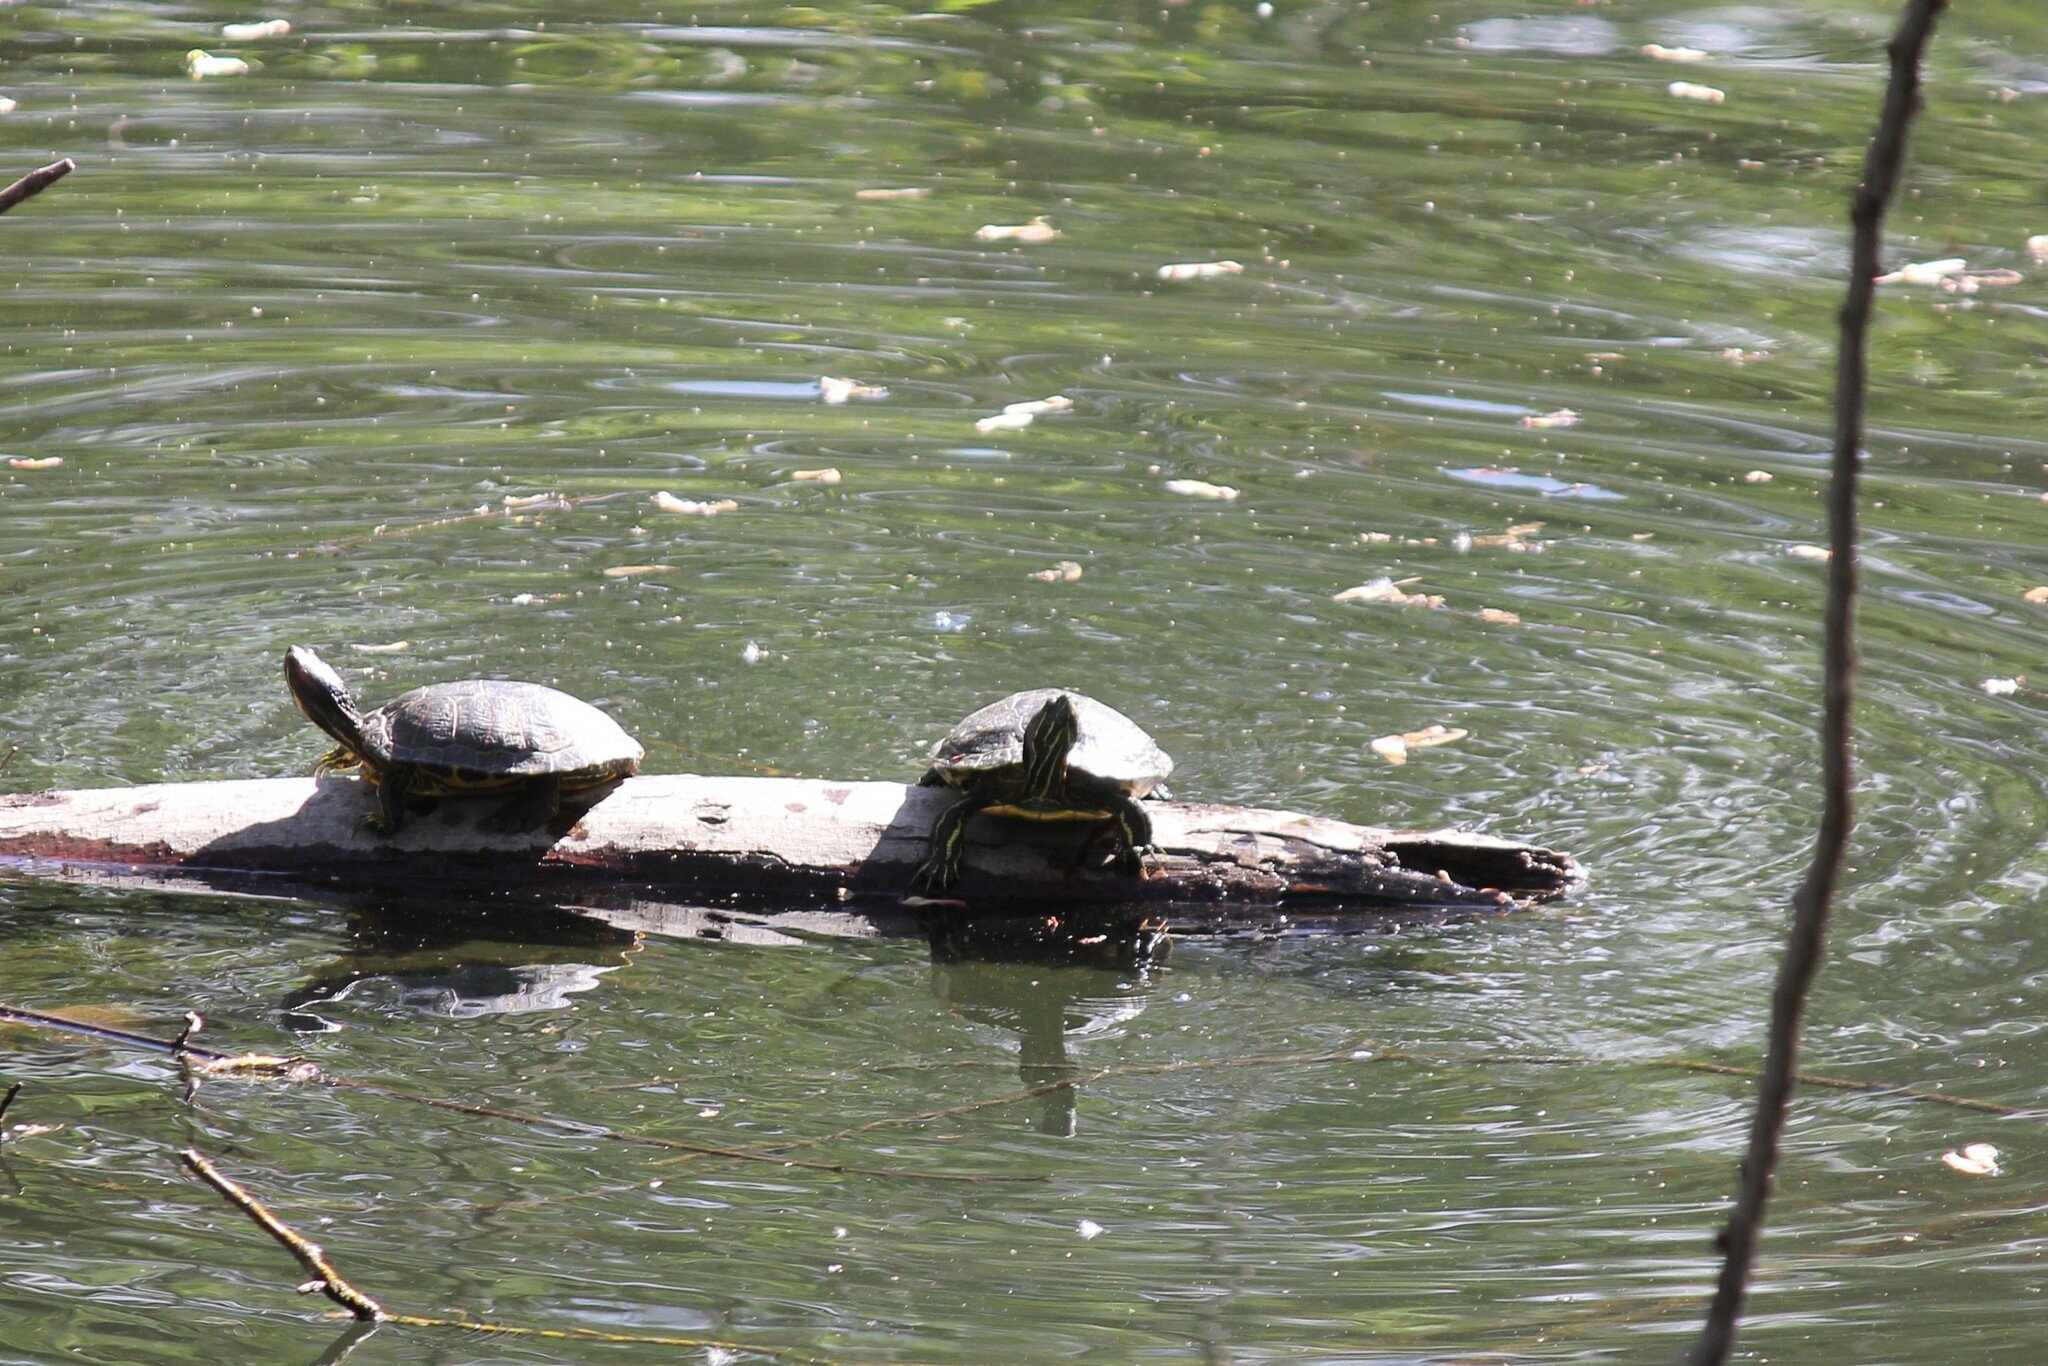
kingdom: Animalia
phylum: Chordata
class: Testudines
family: Emydidae
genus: Trachemys
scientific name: Trachemys scripta
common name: Slider
